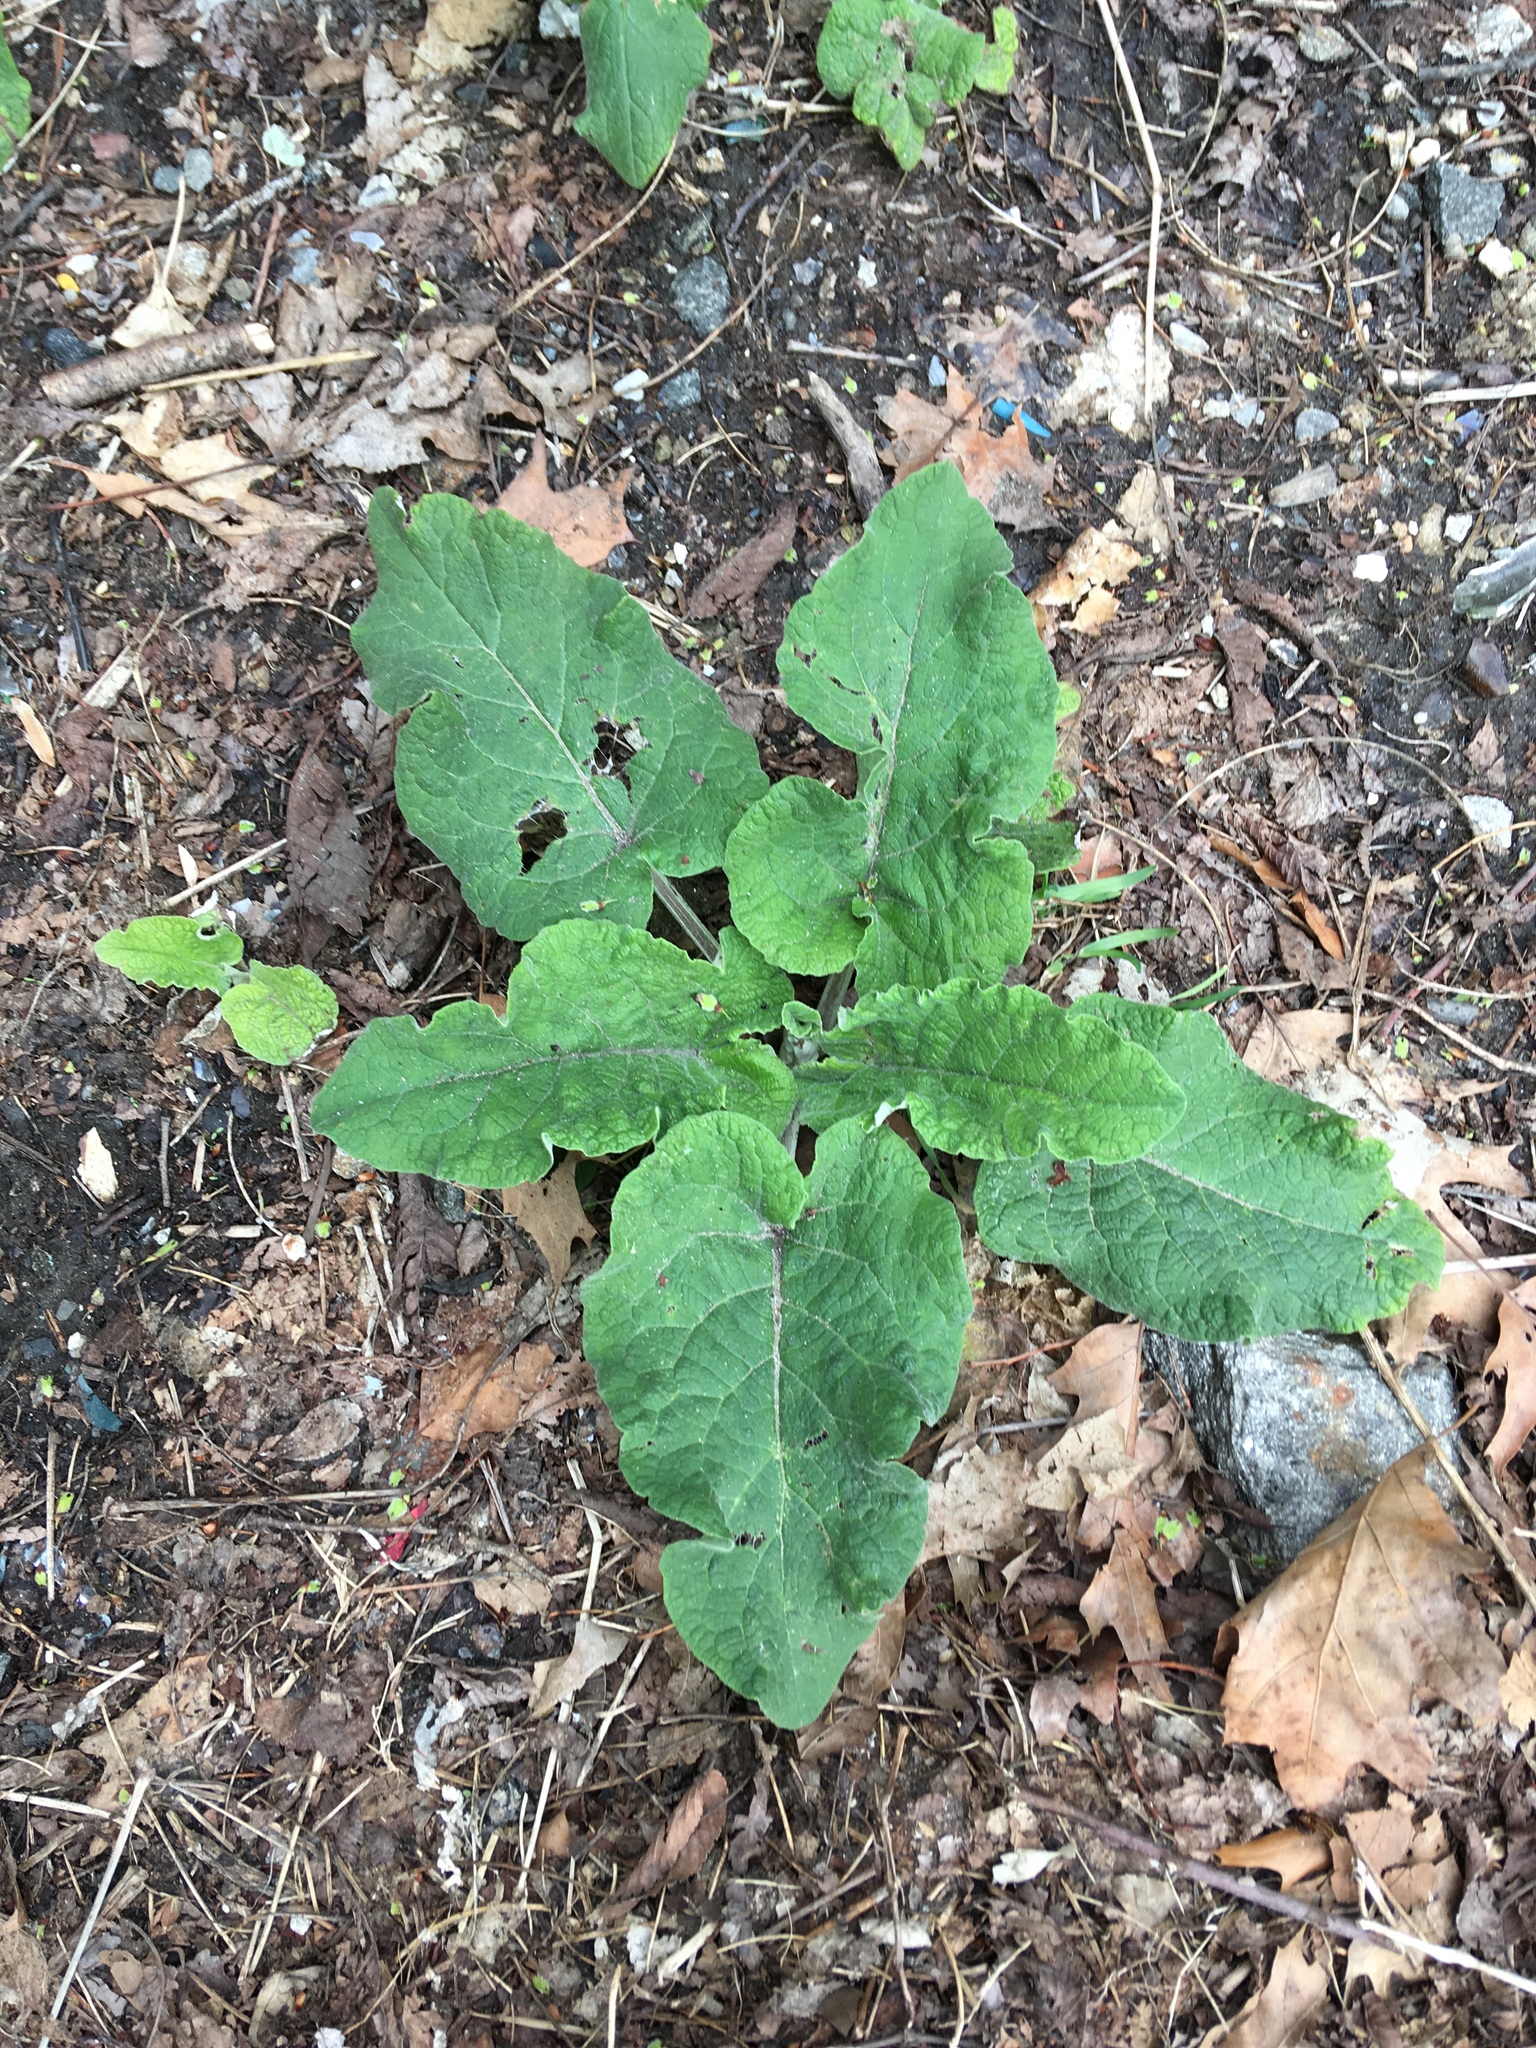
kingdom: Plantae
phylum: Tracheophyta
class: Magnoliopsida
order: Asterales
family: Asteraceae
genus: Arctium
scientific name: Arctium
